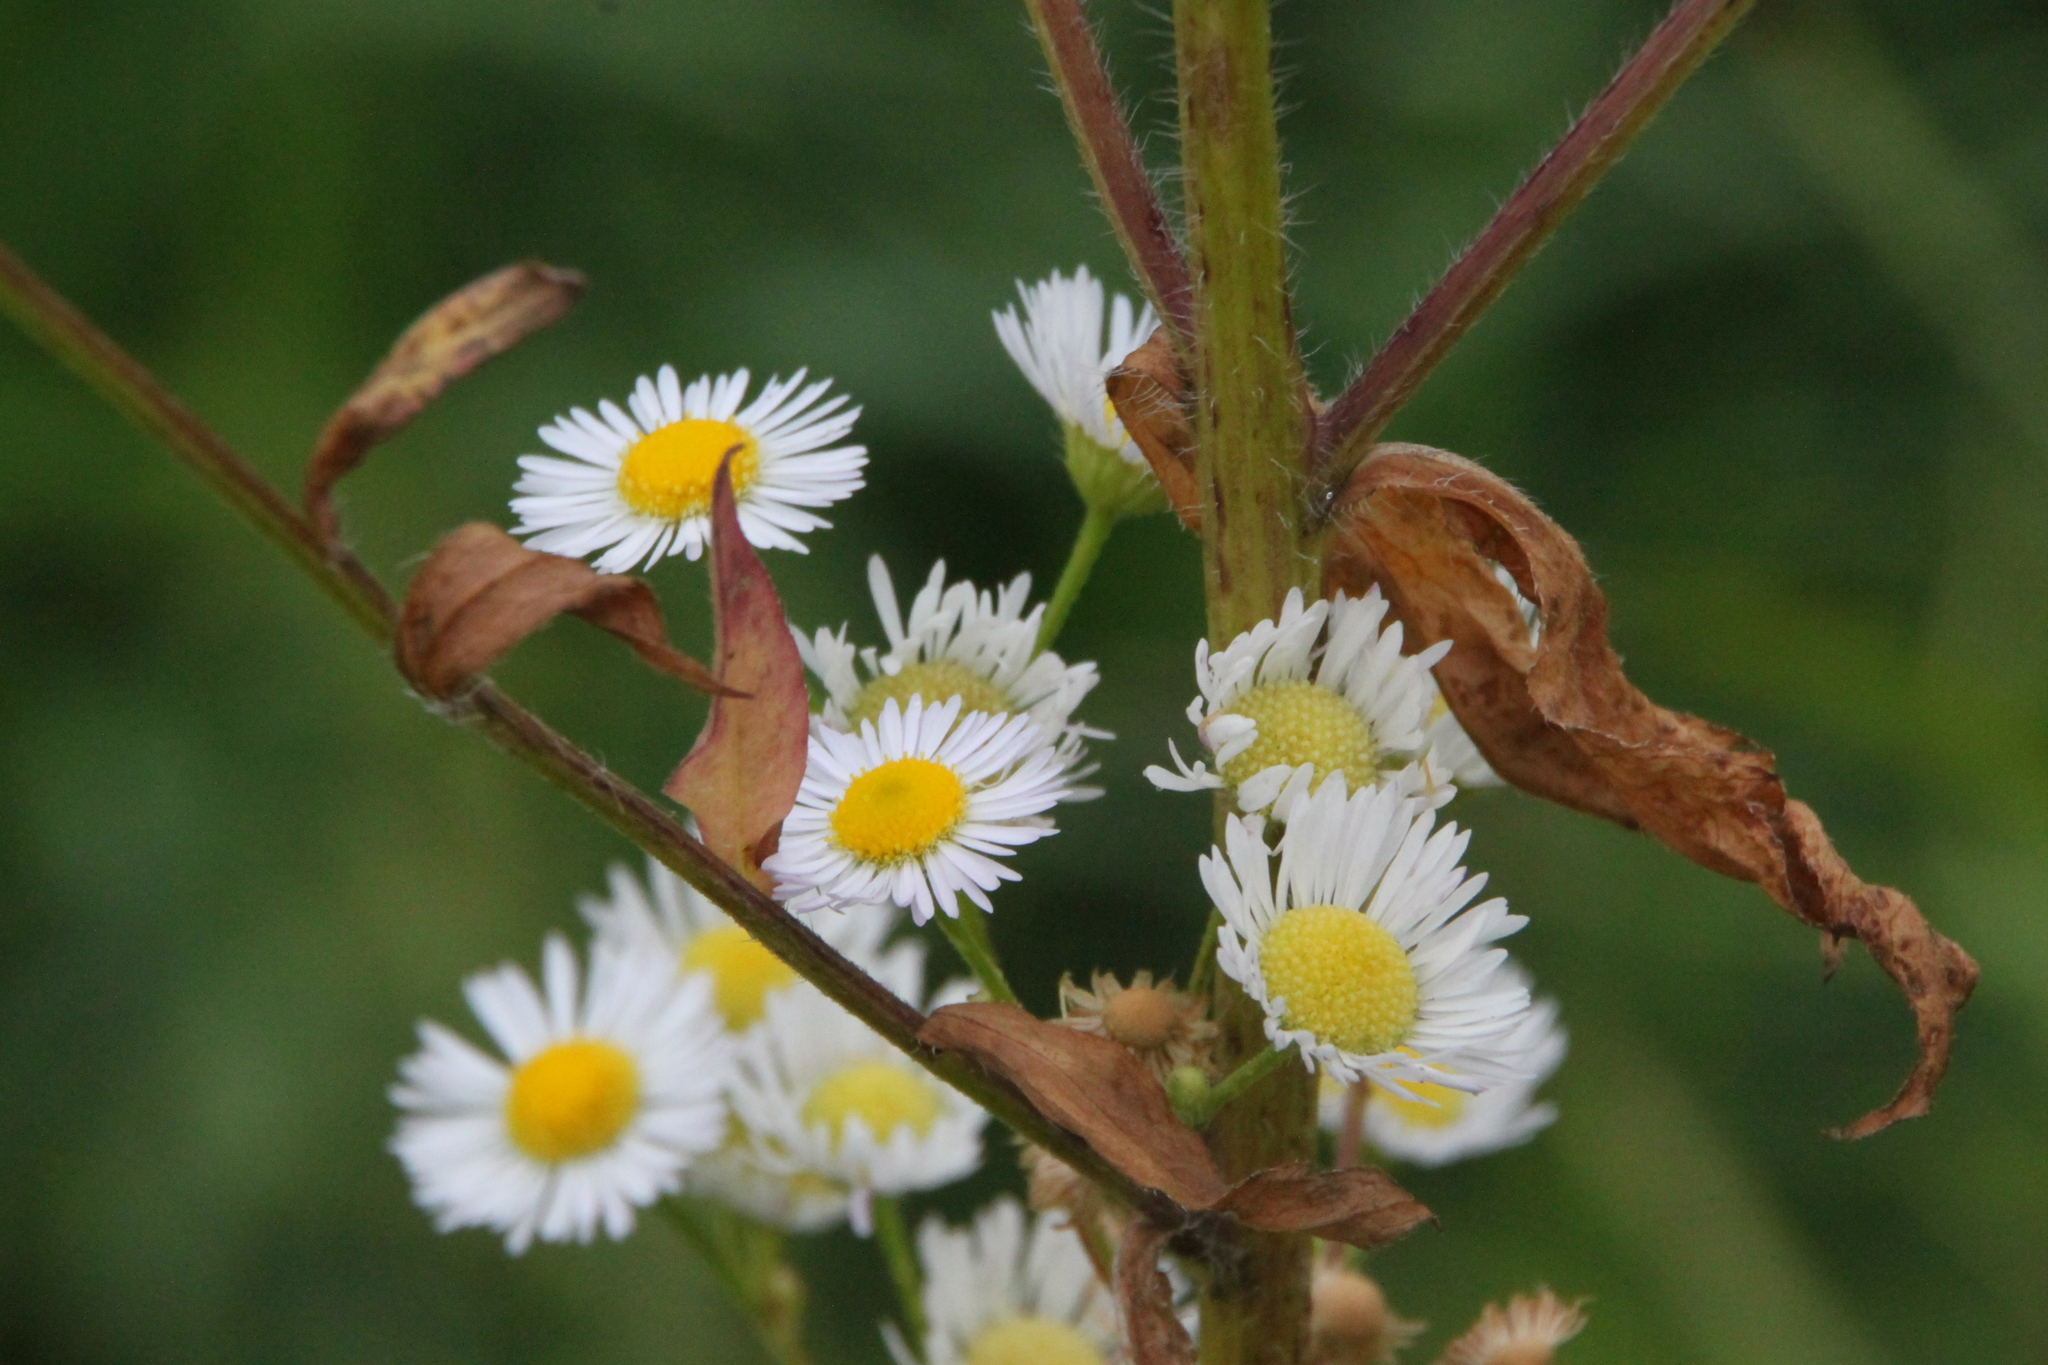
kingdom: Plantae
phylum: Tracheophyta
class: Magnoliopsida
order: Asterales
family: Asteraceae
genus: Erigeron
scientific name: Erigeron annuus
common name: Tall fleabane
